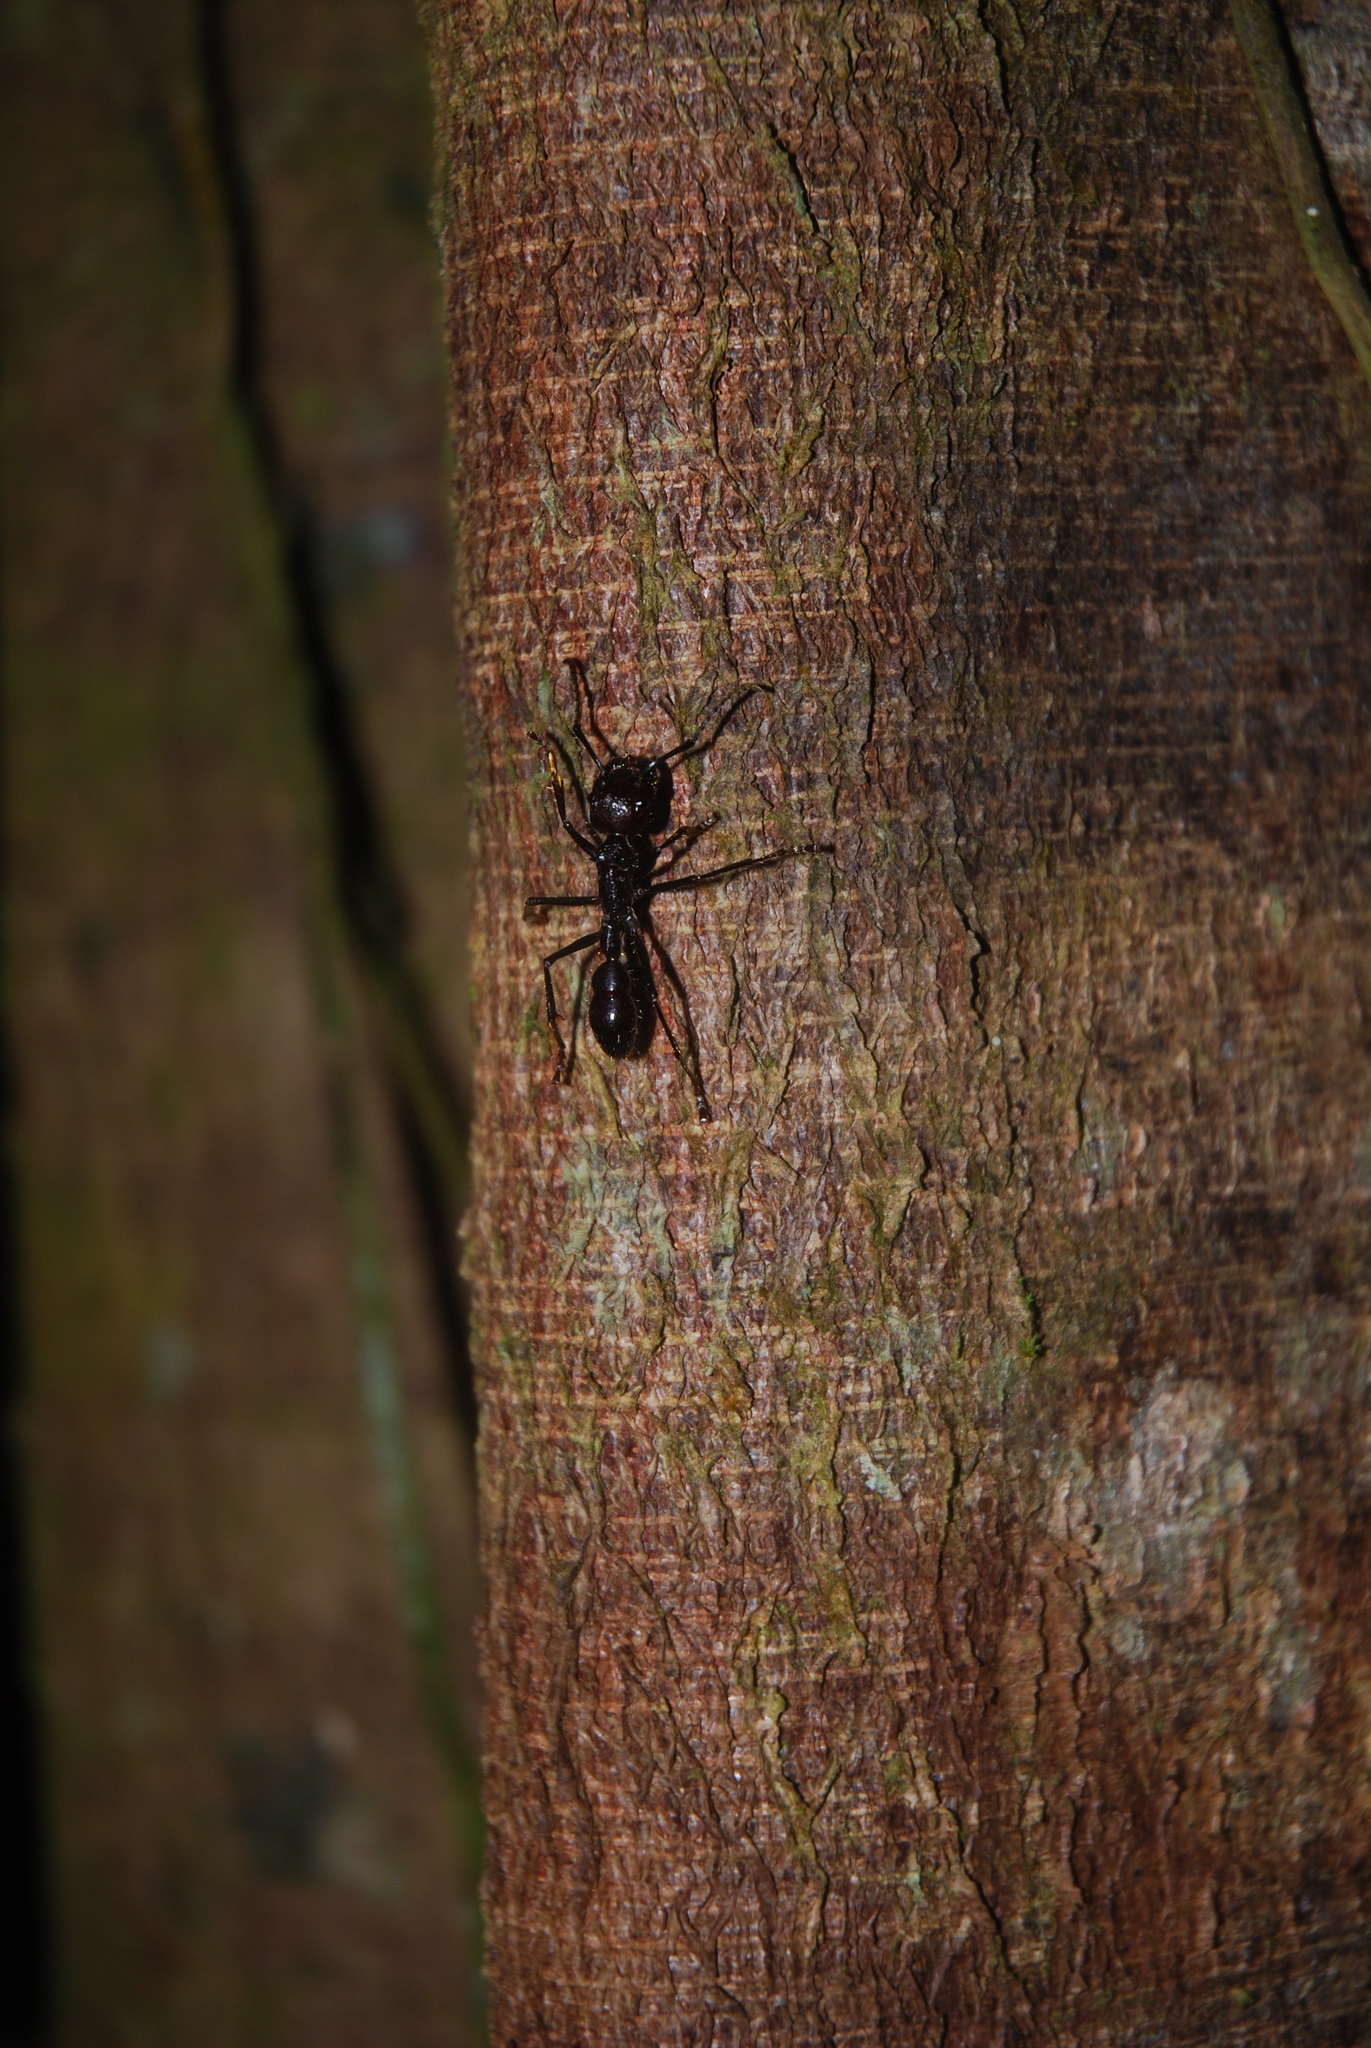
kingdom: Animalia
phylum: Arthropoda
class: Insecta
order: Hymenoptera
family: Formicidae
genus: Paraponera
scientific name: Paraponera clavata
